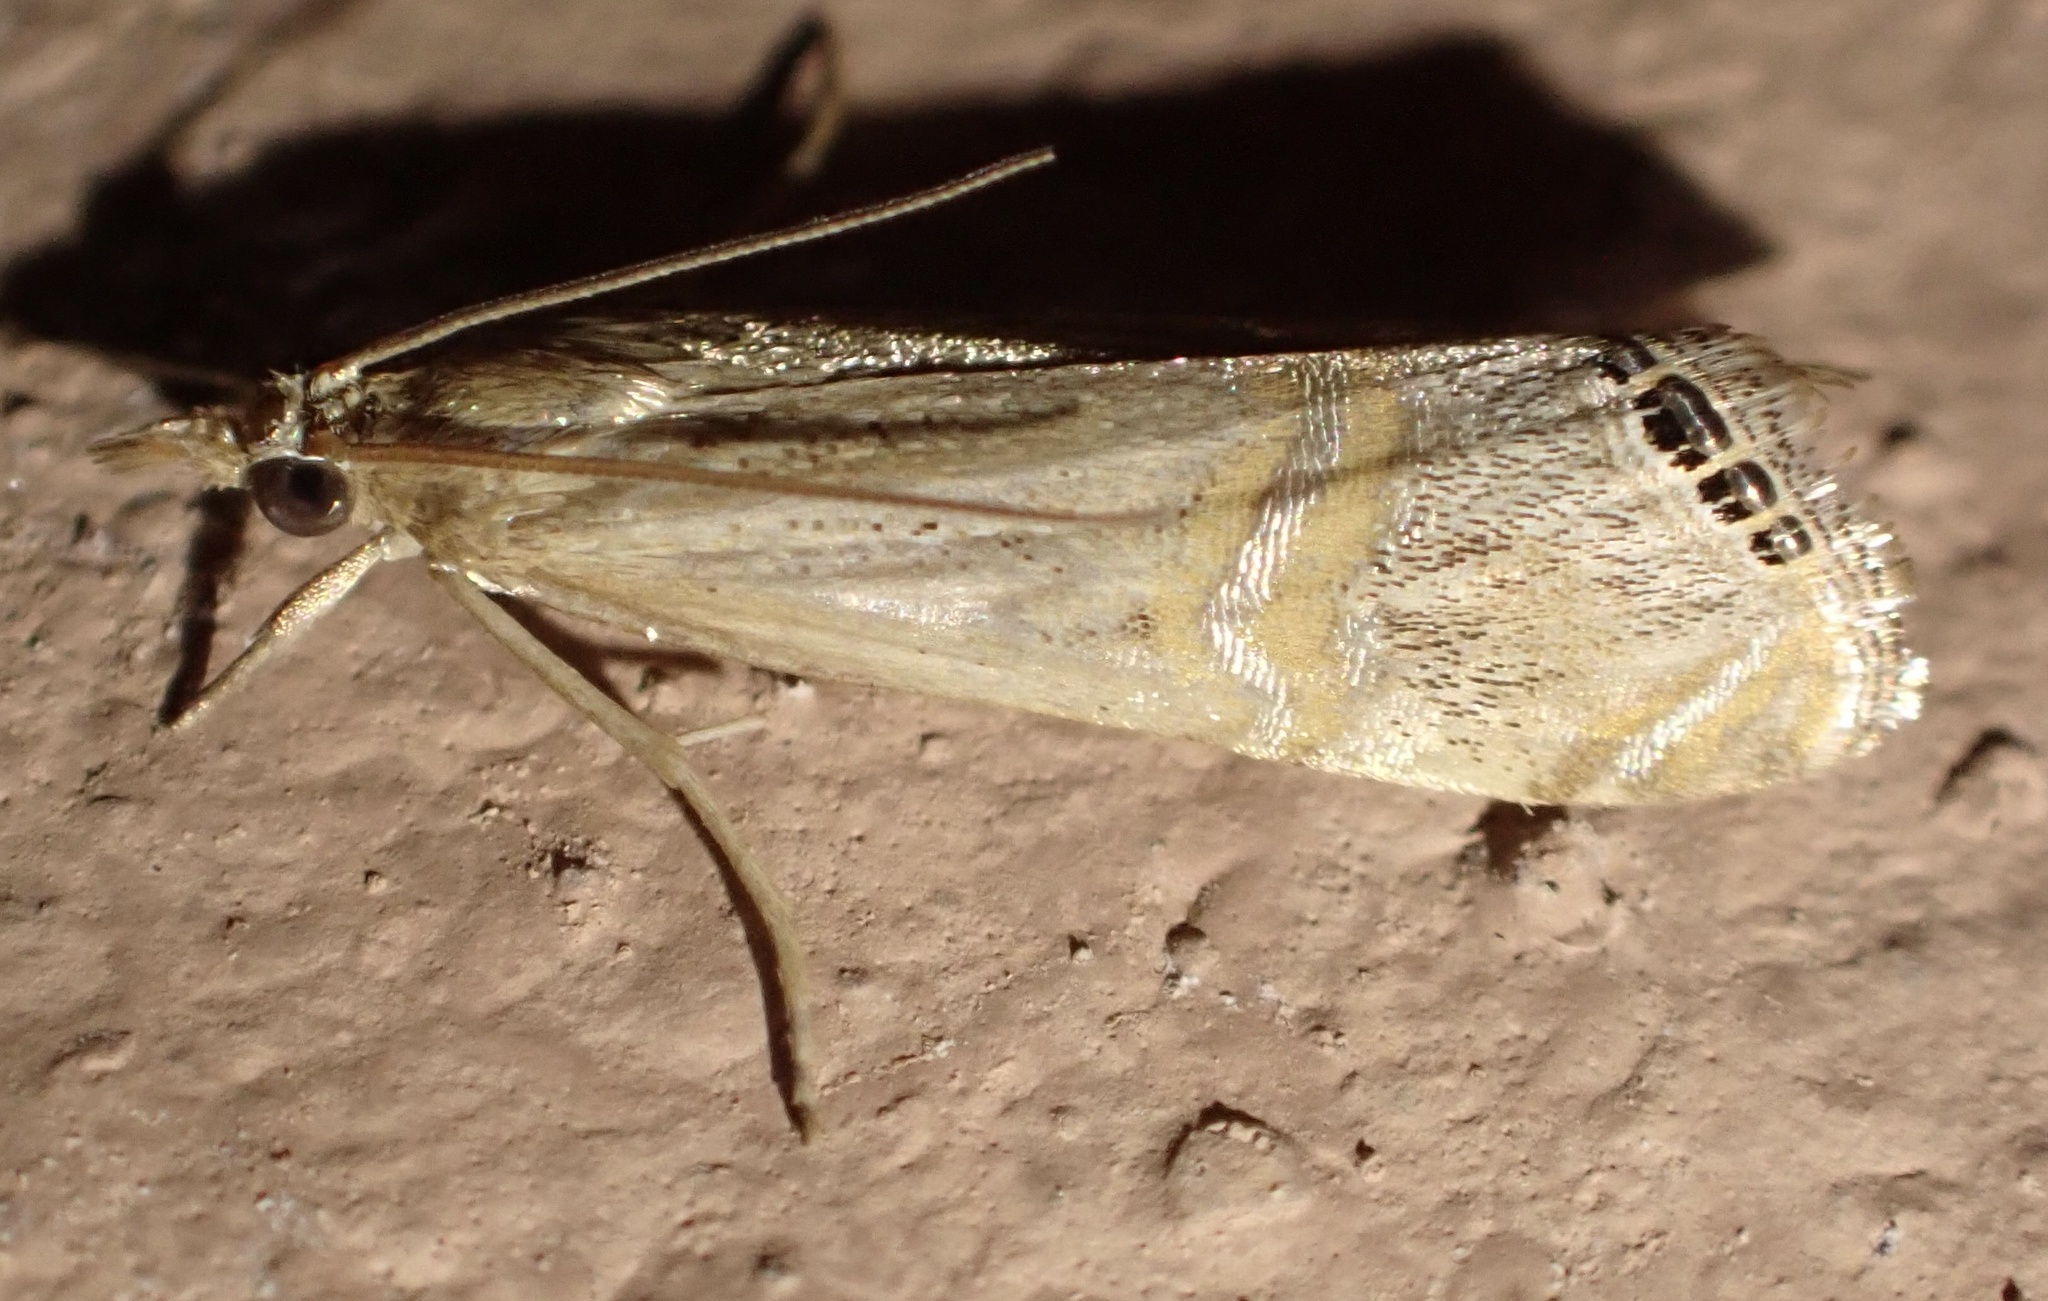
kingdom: Animalia
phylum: Arthropoda
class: Insecta
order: Lepidoptera
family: Crambidae
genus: Euchromius
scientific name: Euchromius ocellea
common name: Necklace veneer moth
